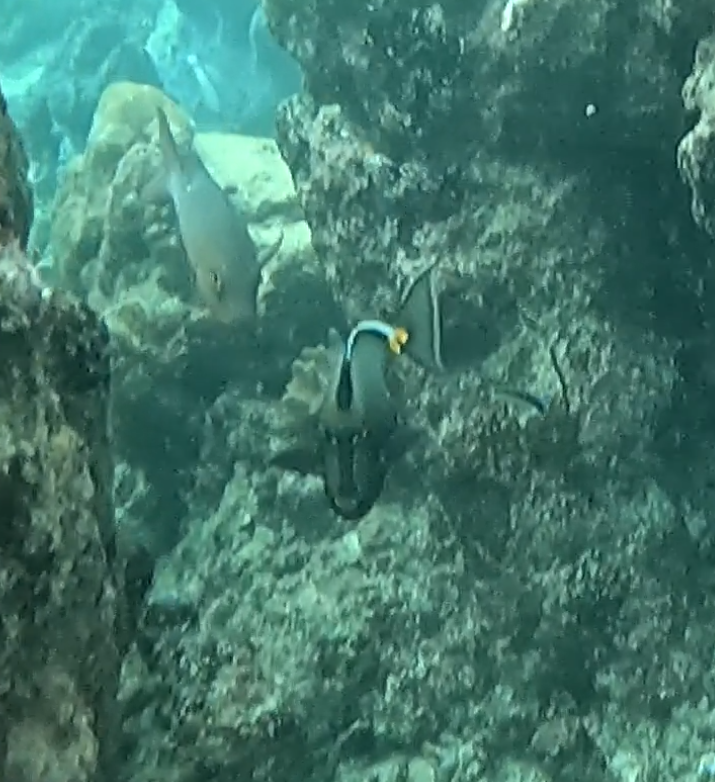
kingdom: Animalia
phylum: Chordata
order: Perciformes
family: Acanthuridae
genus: Naso
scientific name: Naso lituratus
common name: Orangespine unicornfish
